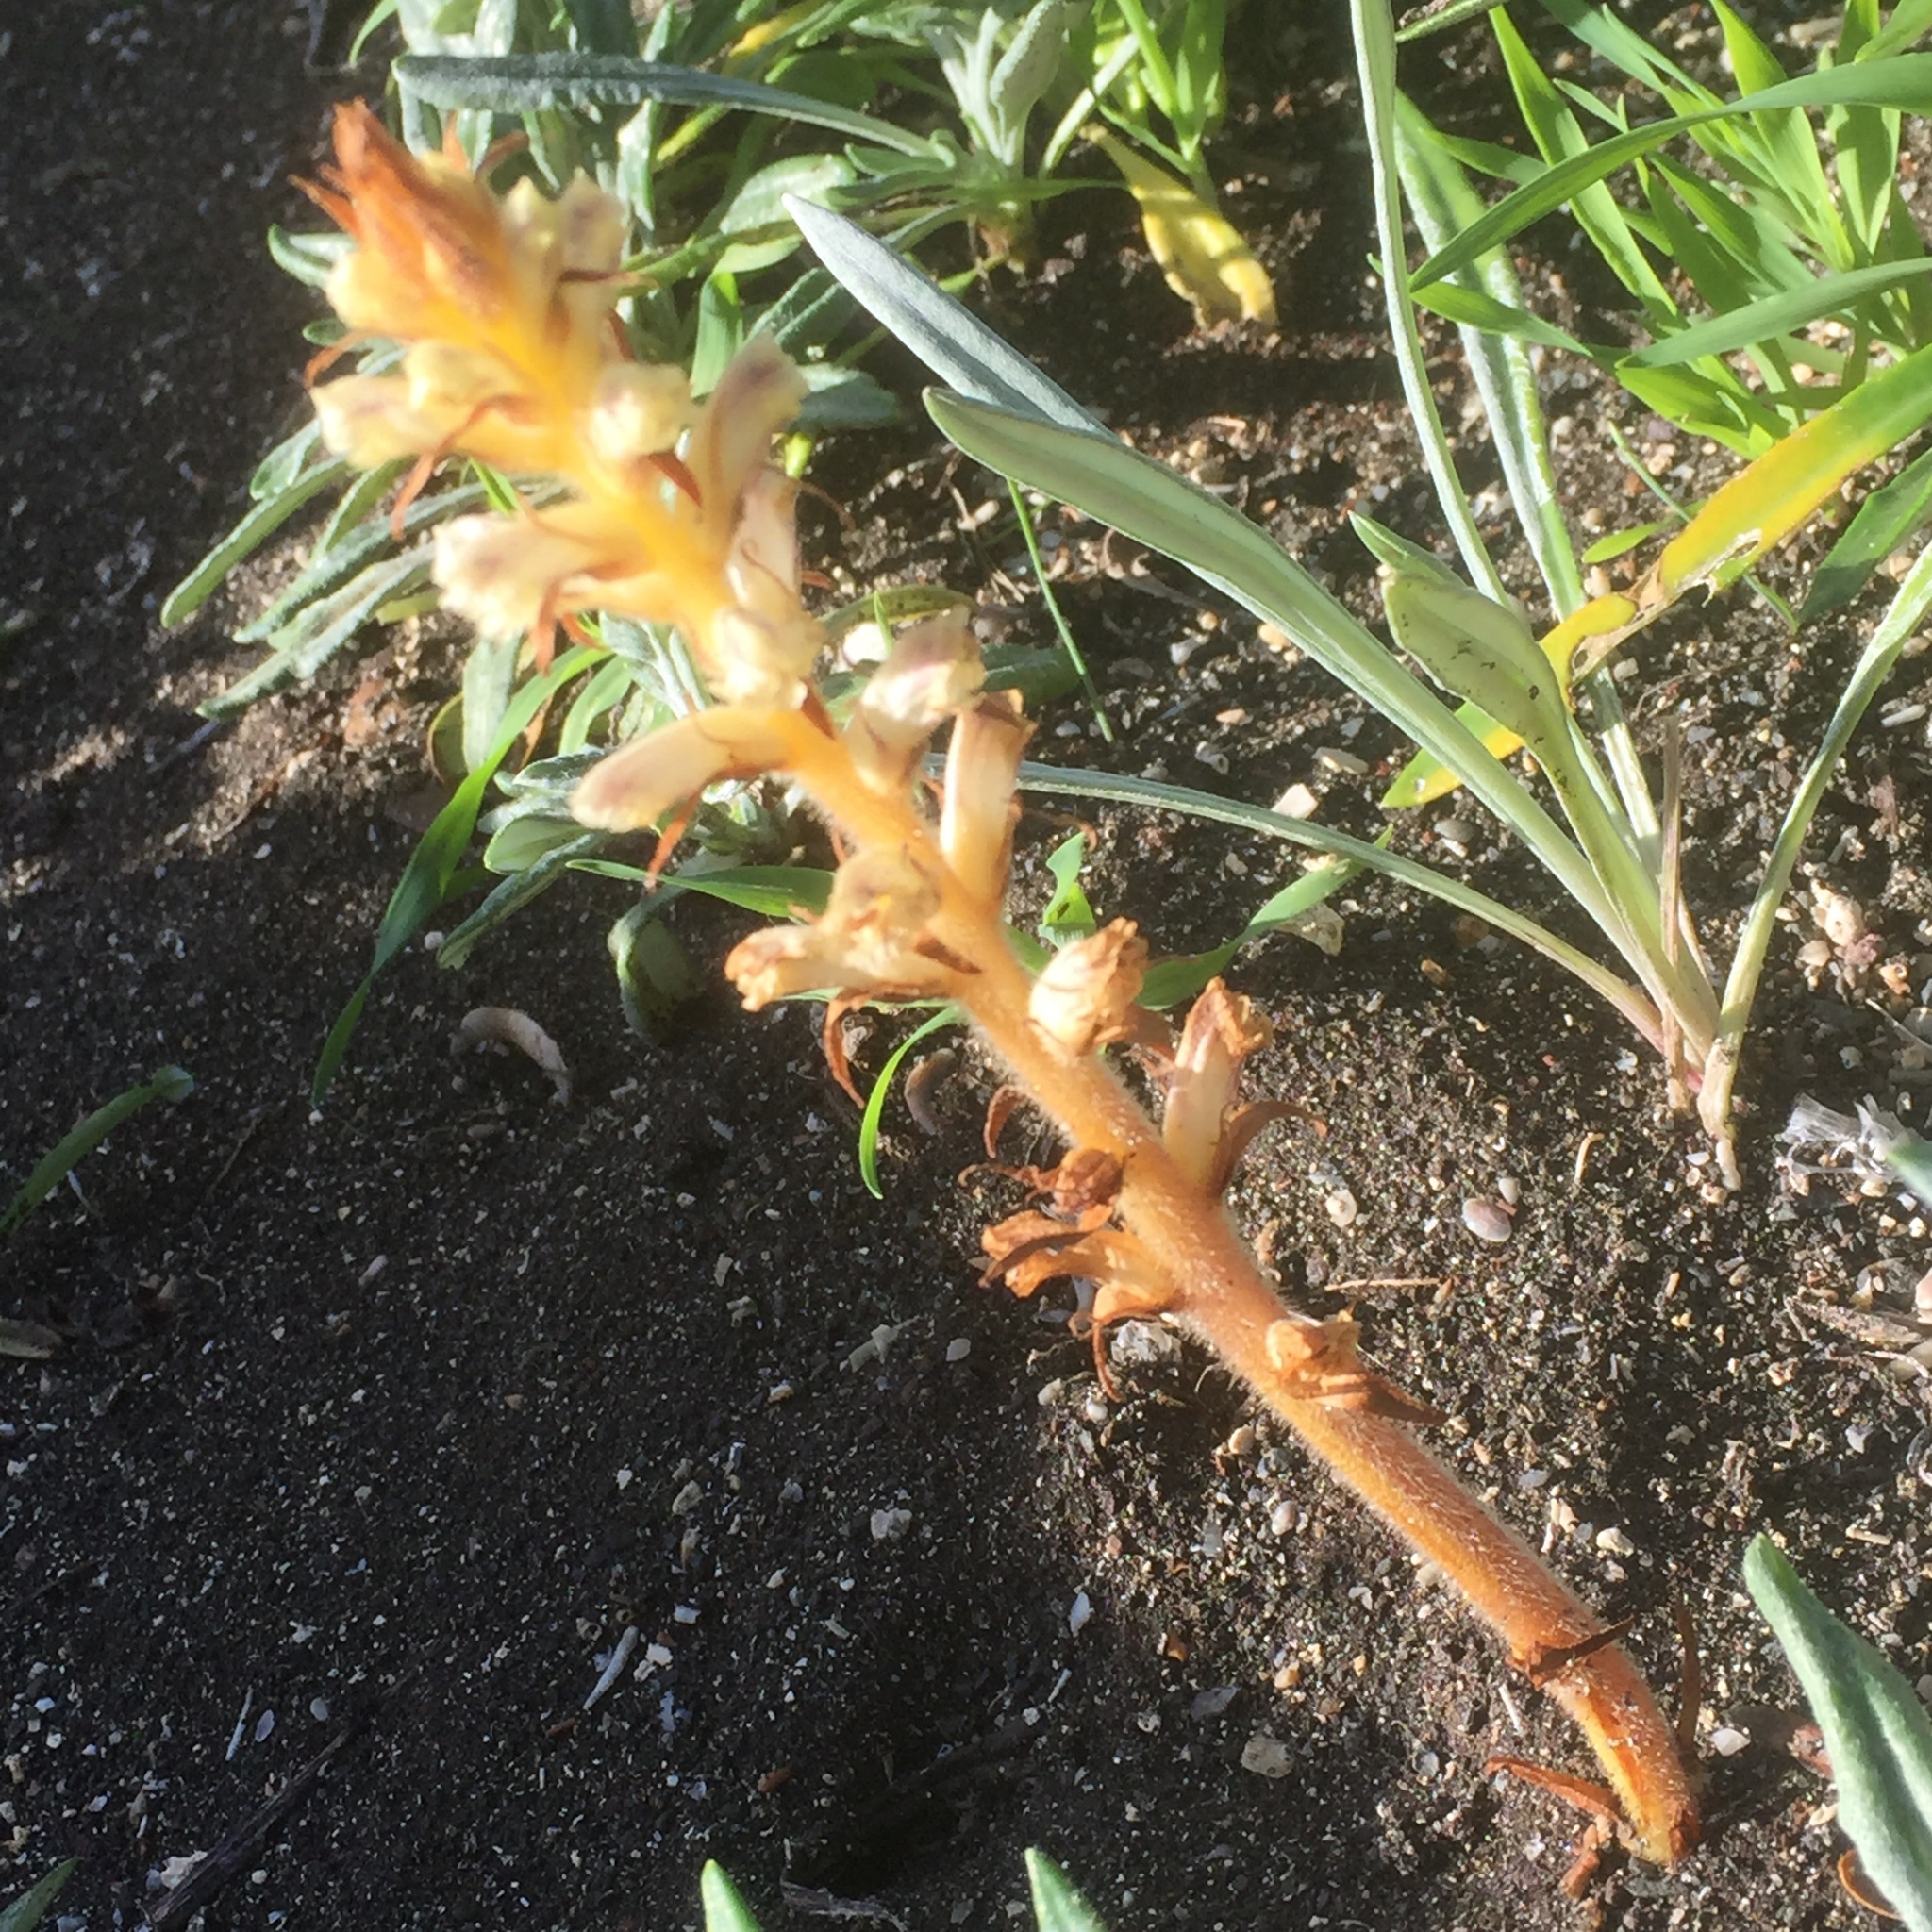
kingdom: Plantae
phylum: Tracheophyta
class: Magnoliopsida
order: Lamiales
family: Orobanchaceae
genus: Orobanche
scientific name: Orobanche minor
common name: Common broomrape
